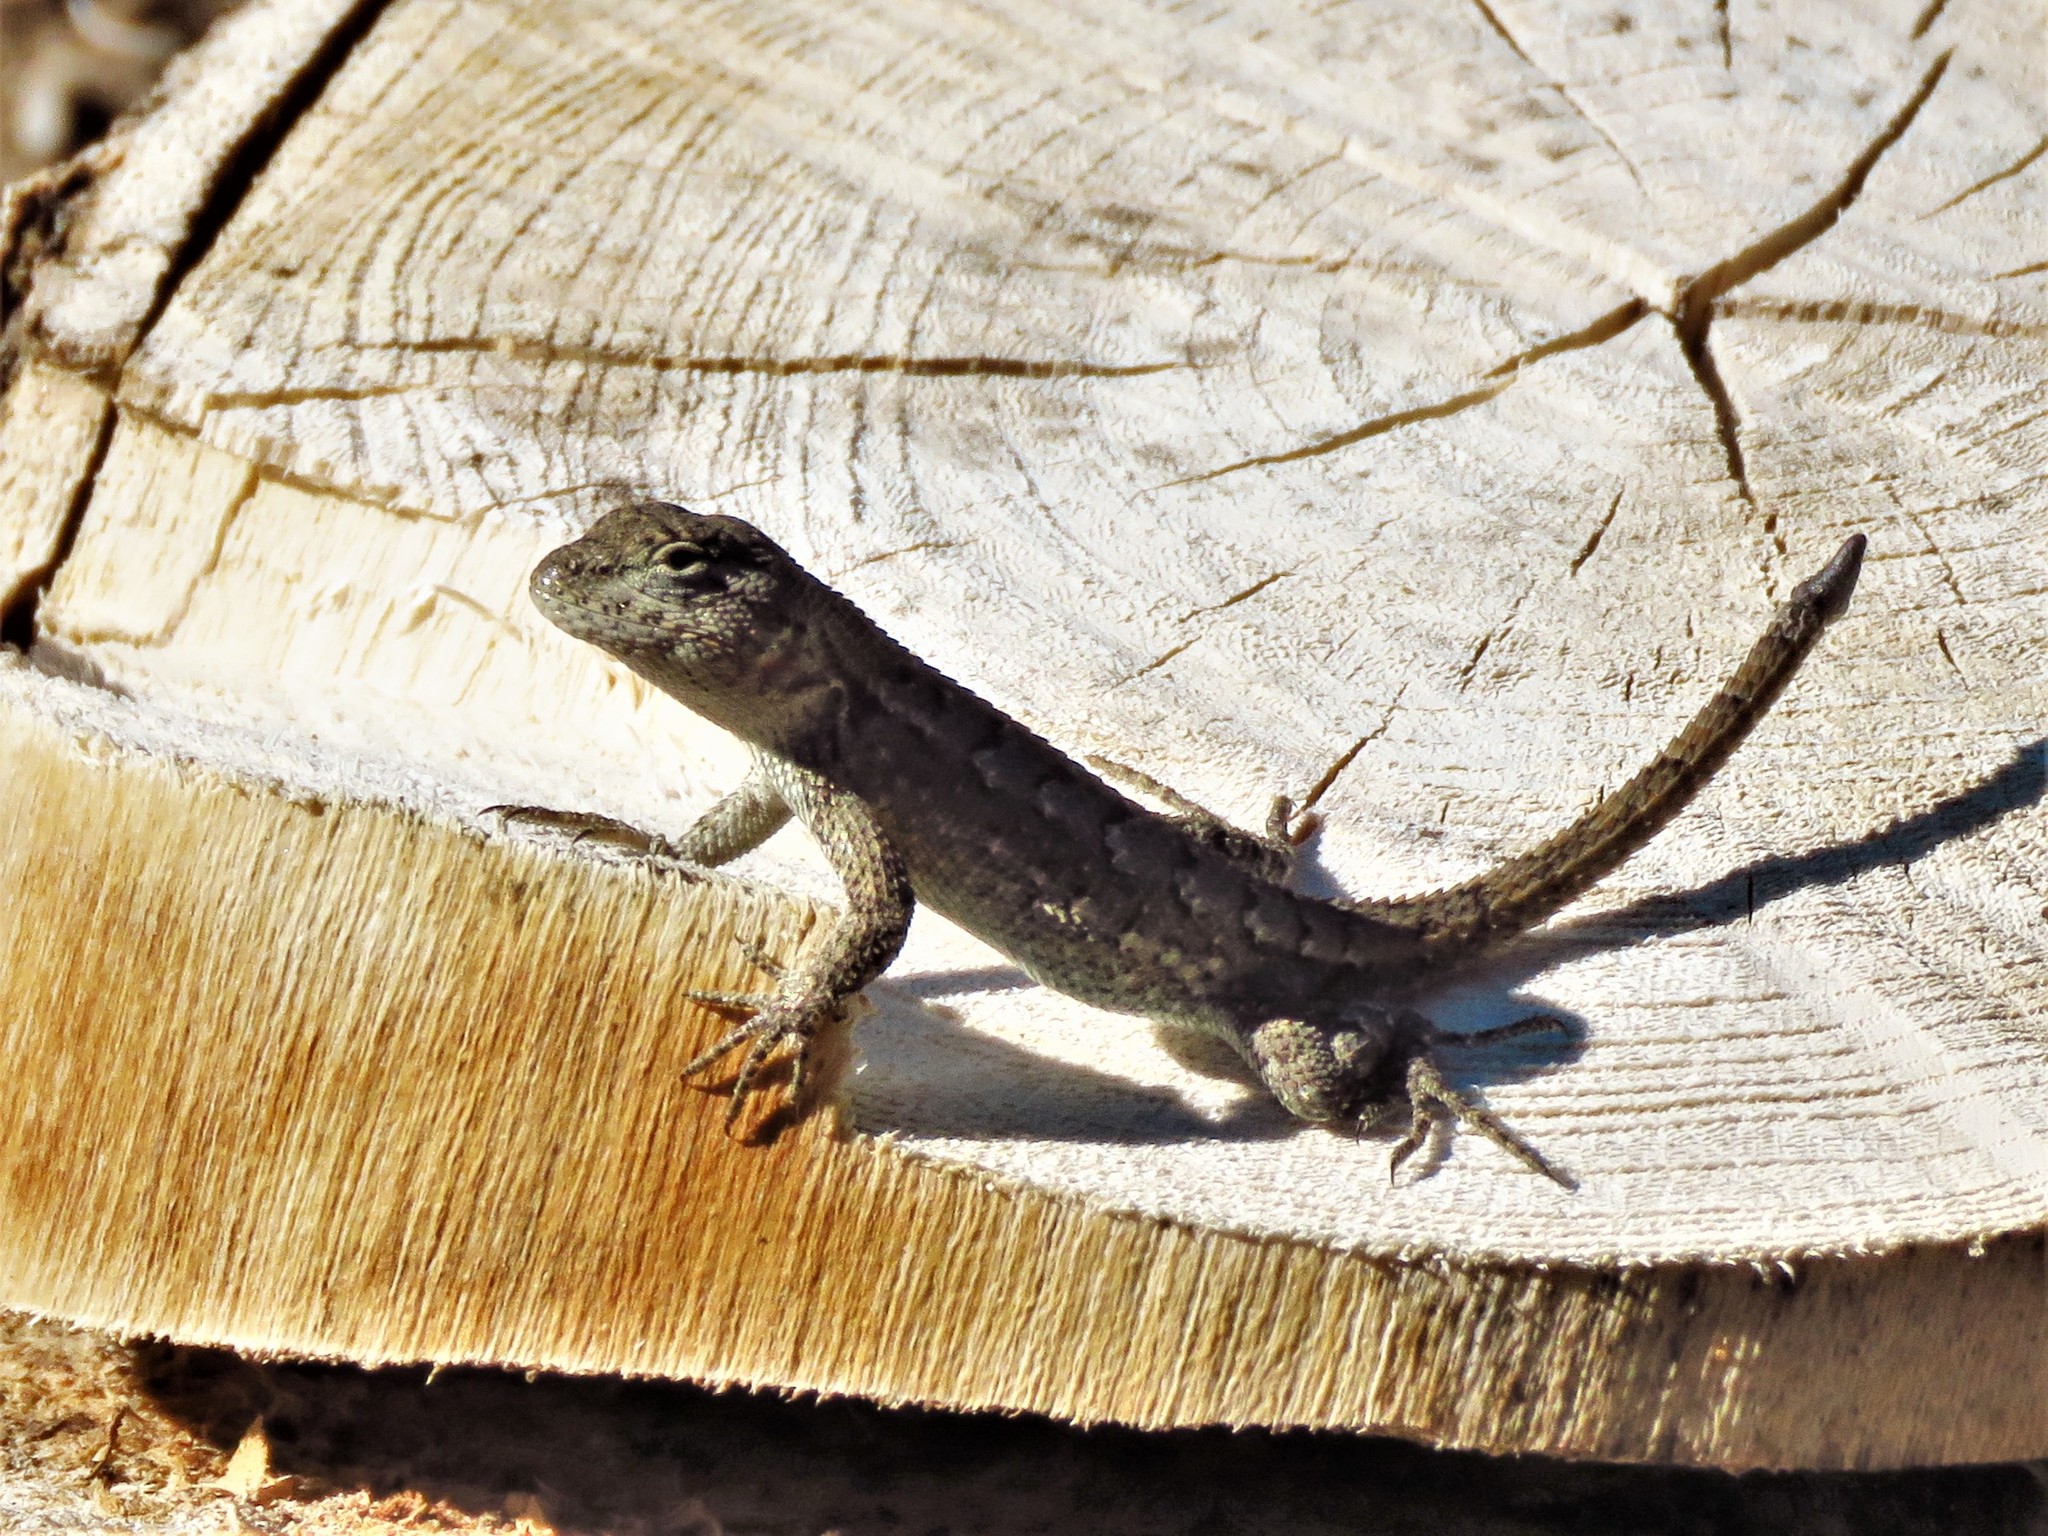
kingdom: Animalia
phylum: Chordata
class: Squamata
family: Phrynosomatidae
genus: Sceloporus
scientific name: Sceloporus consobrinus
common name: Southern prairie lizard
